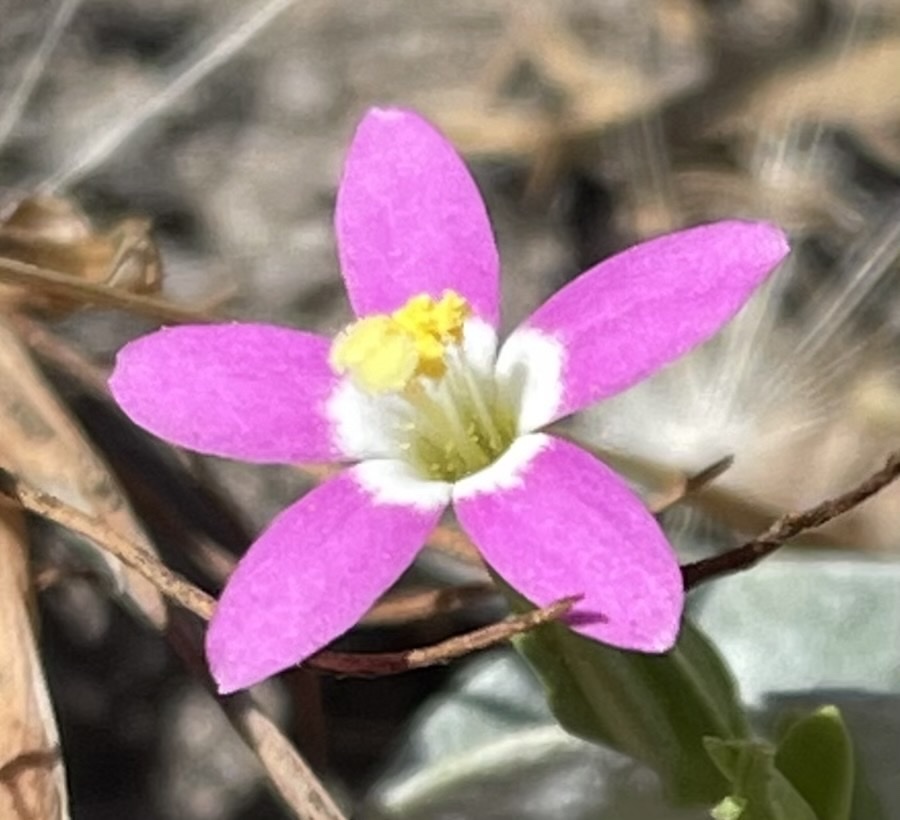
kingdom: Plantae
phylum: Tracheophyta
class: Magnoliopsida
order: Gentianales
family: Gentianaceae
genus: Zeltnera
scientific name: Zeltnera davyi
